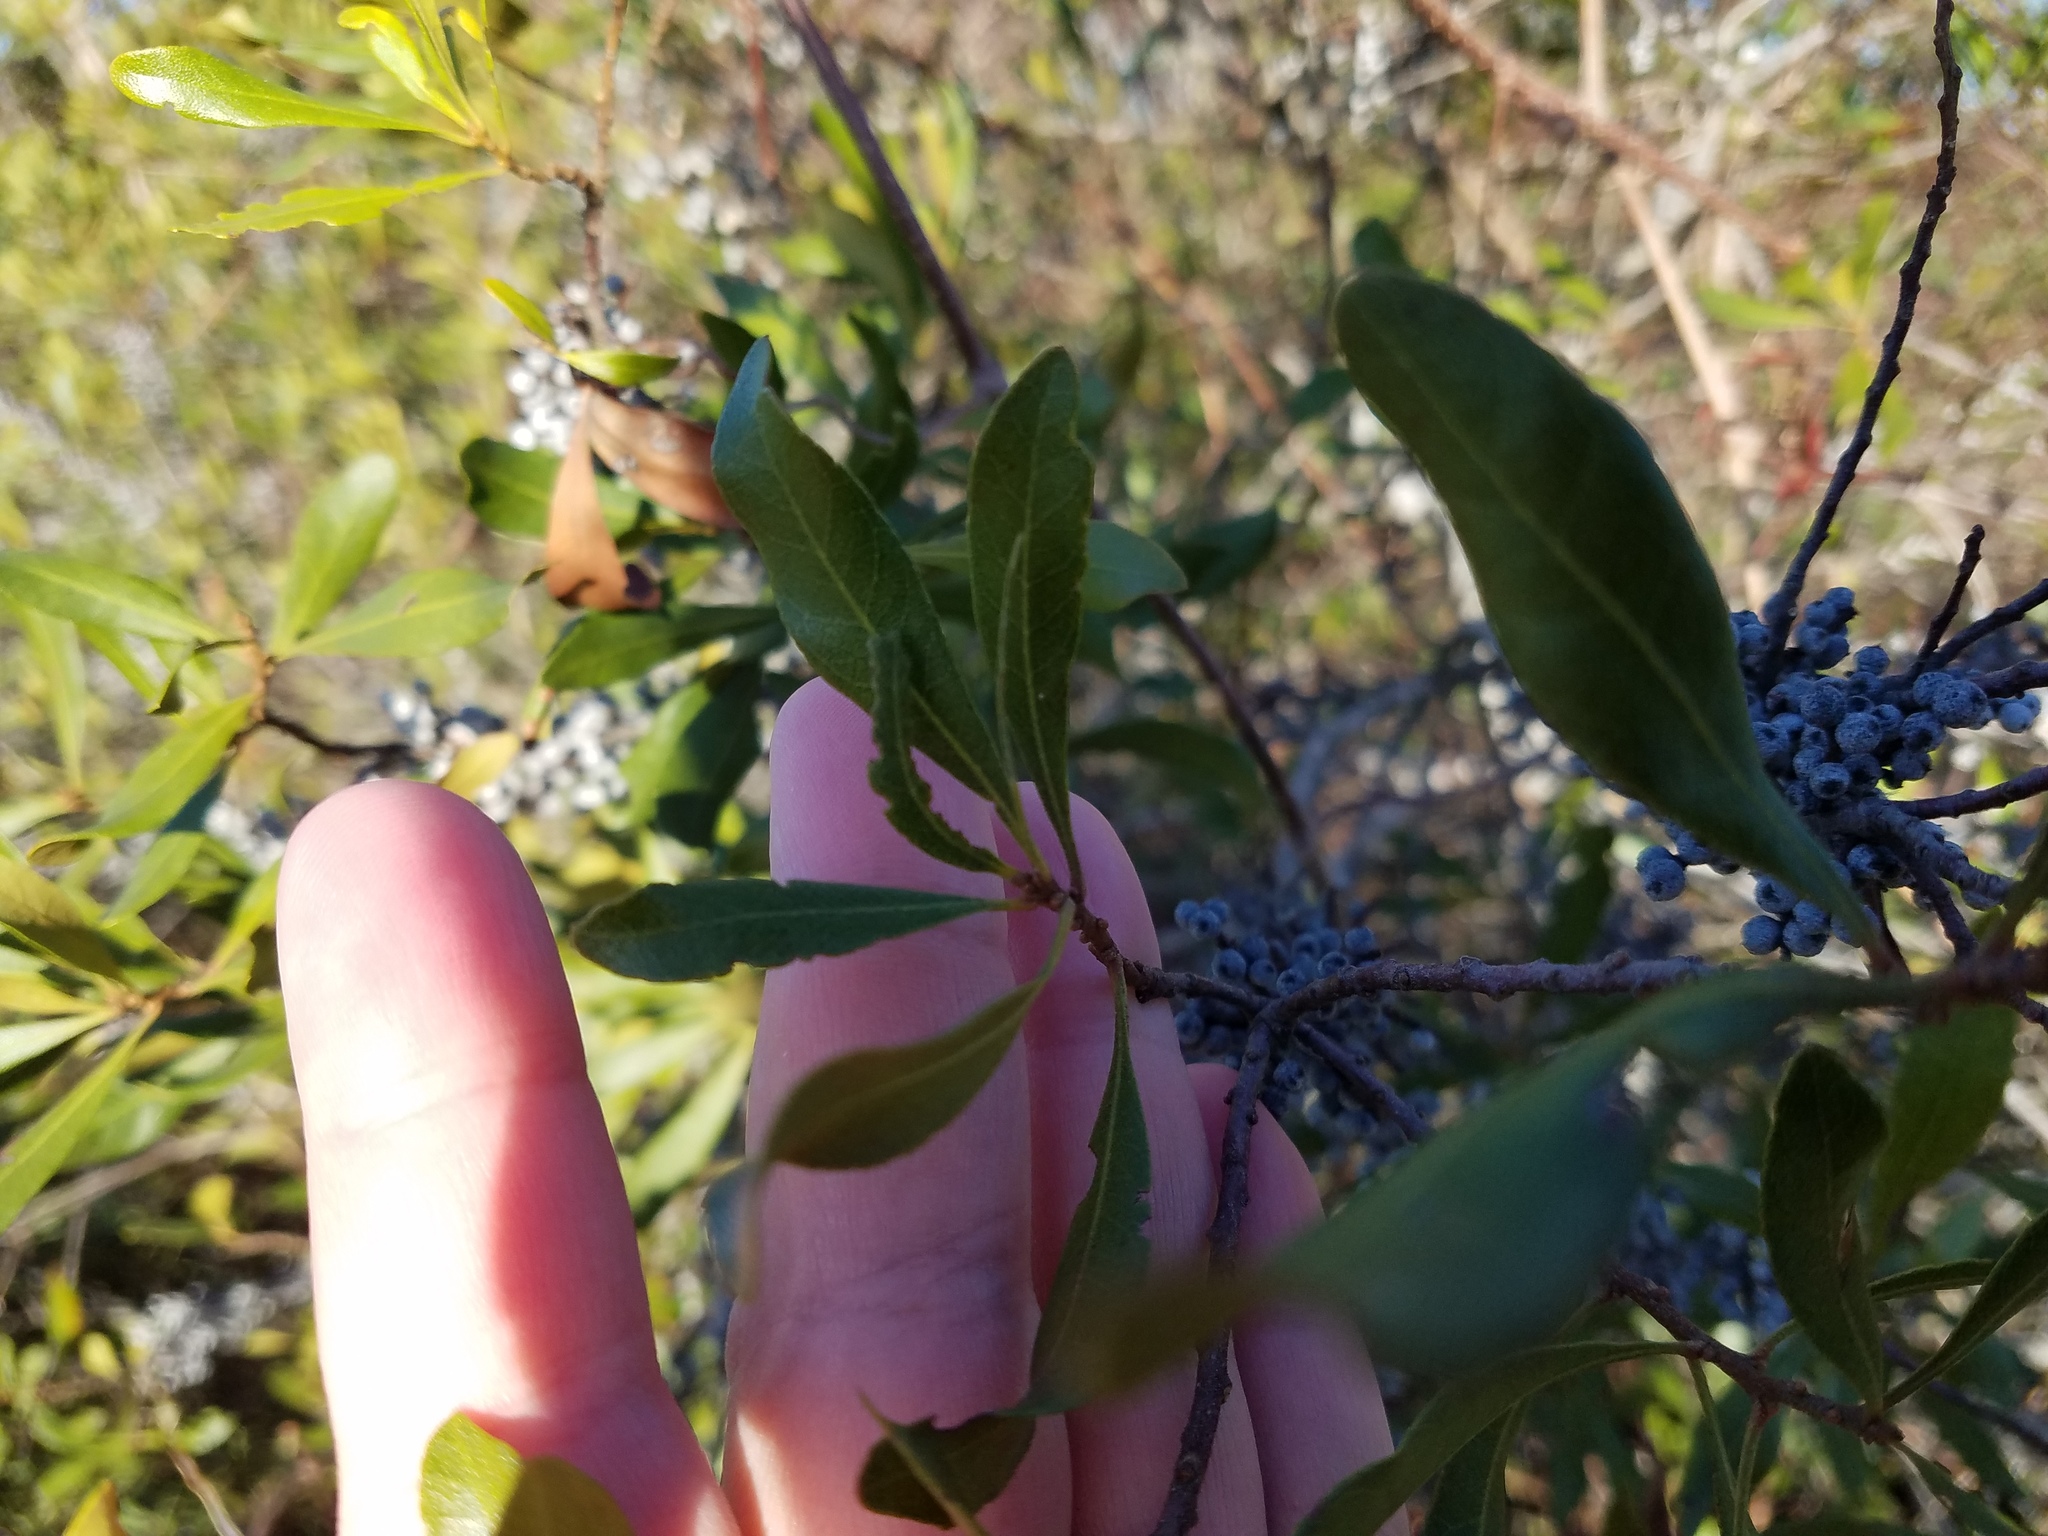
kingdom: Plantae
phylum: Tracheophyta
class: Magnoliopsida
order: Fagales
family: Myricaceae
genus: Morella
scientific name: Morella cerifera
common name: Wax myrtle
